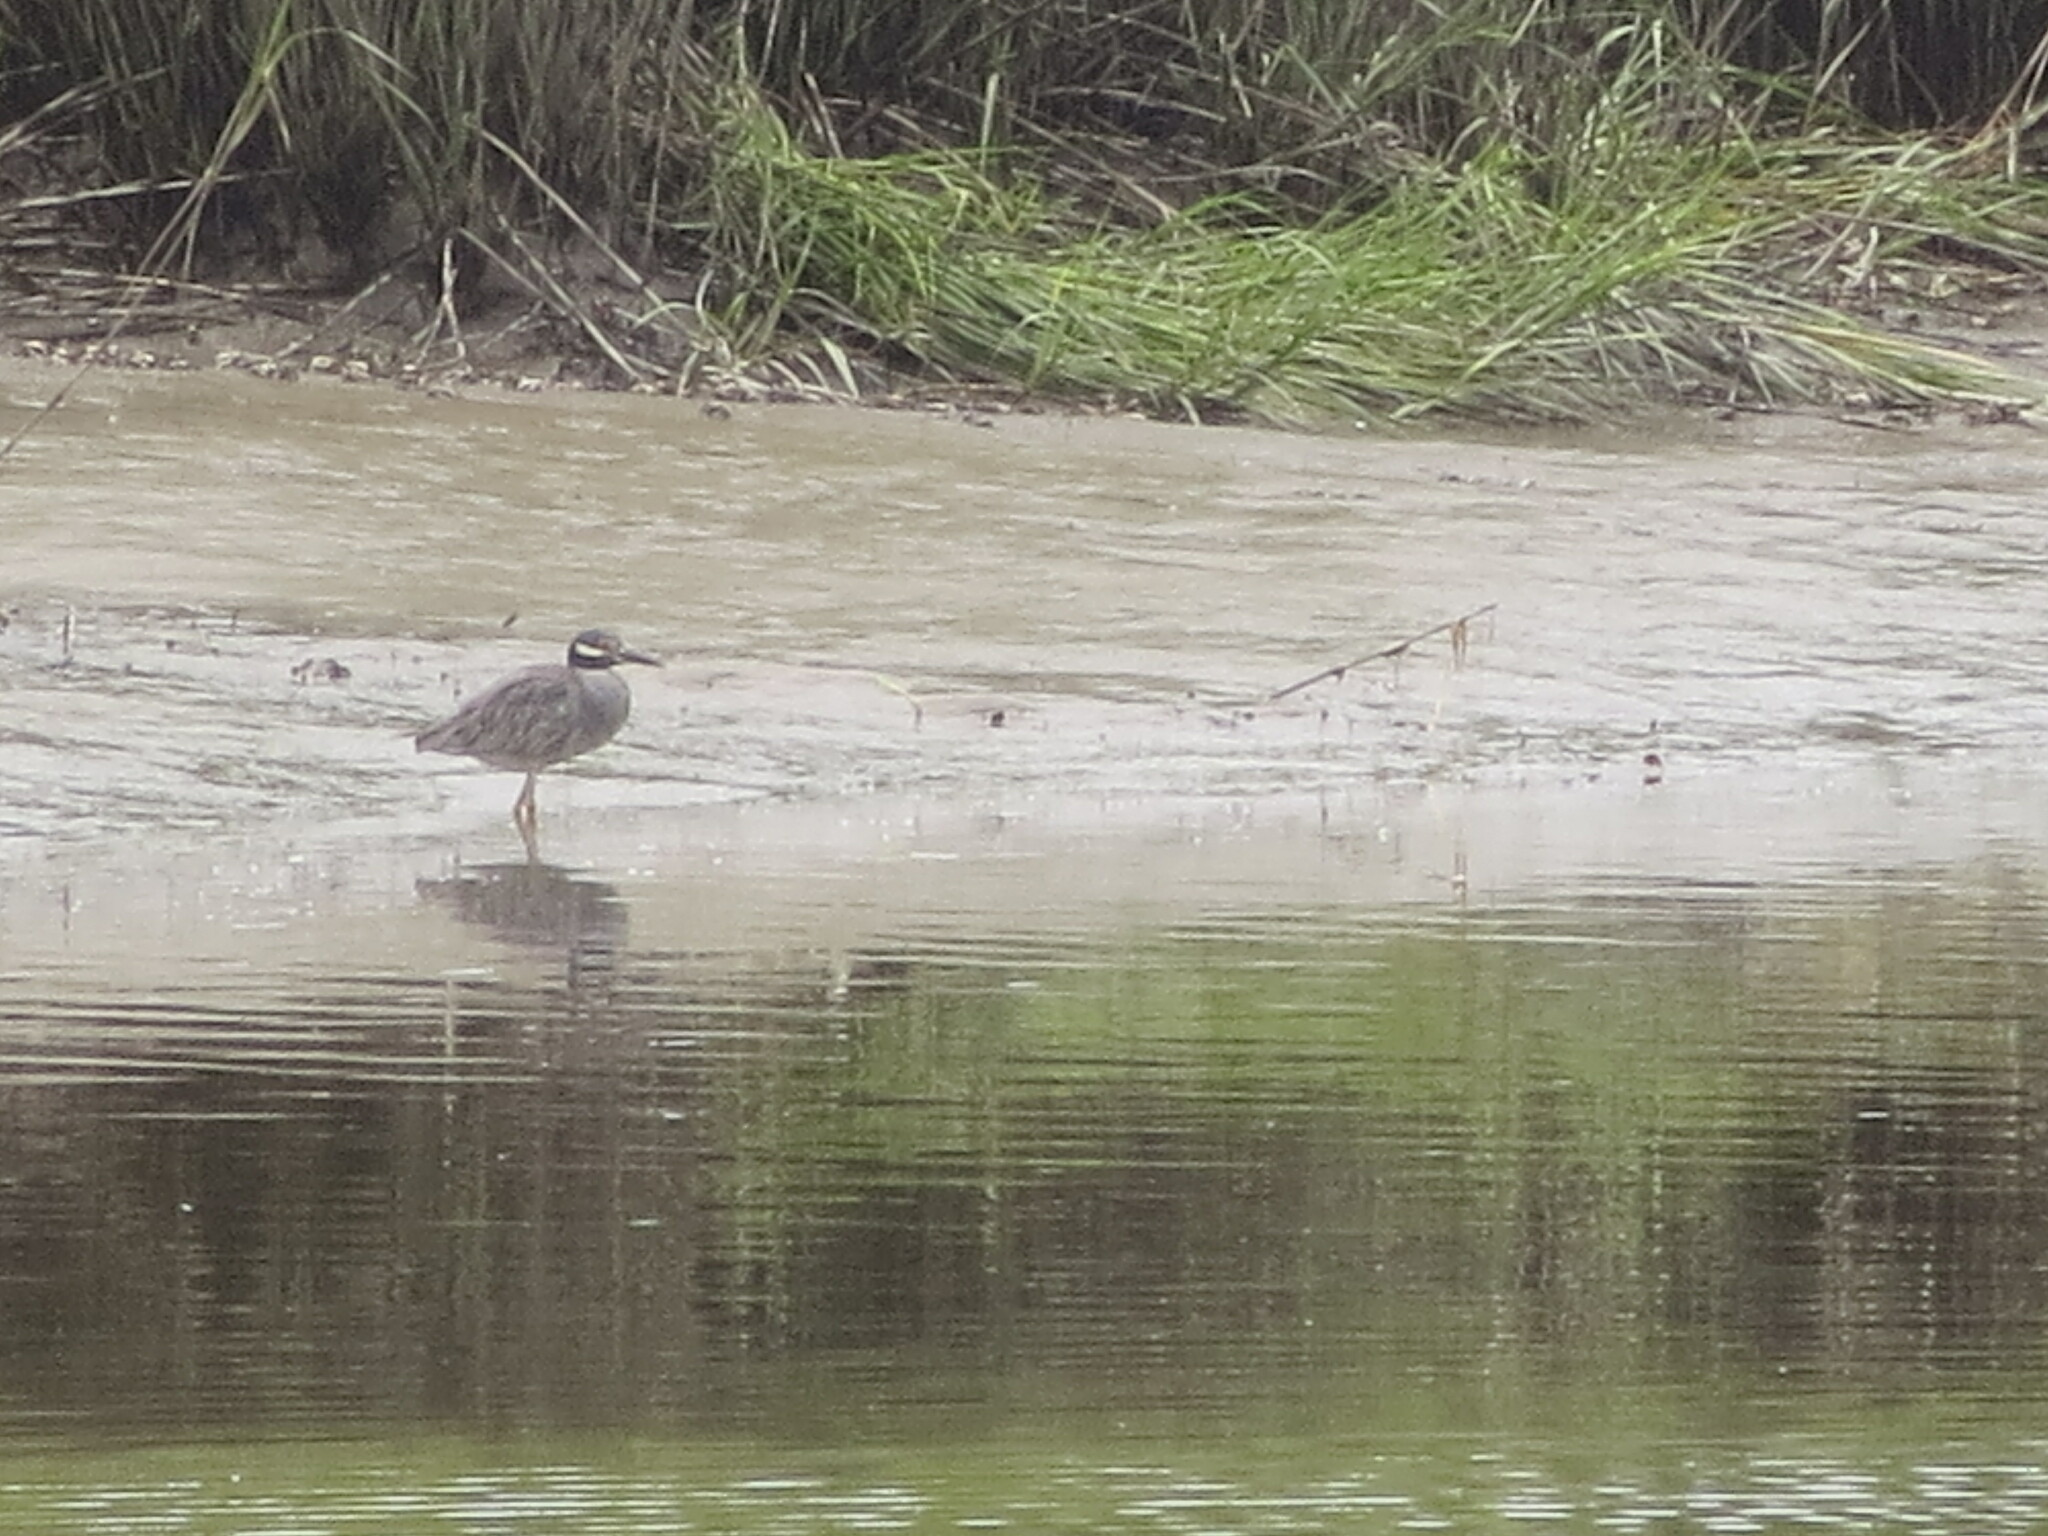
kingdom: Animalia
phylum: Chordata
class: Aves
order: Pelecaniformes
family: Ardeidae
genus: Nyctanassa
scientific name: Nyctanassa violacea
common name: Yellow-crowned night heron
